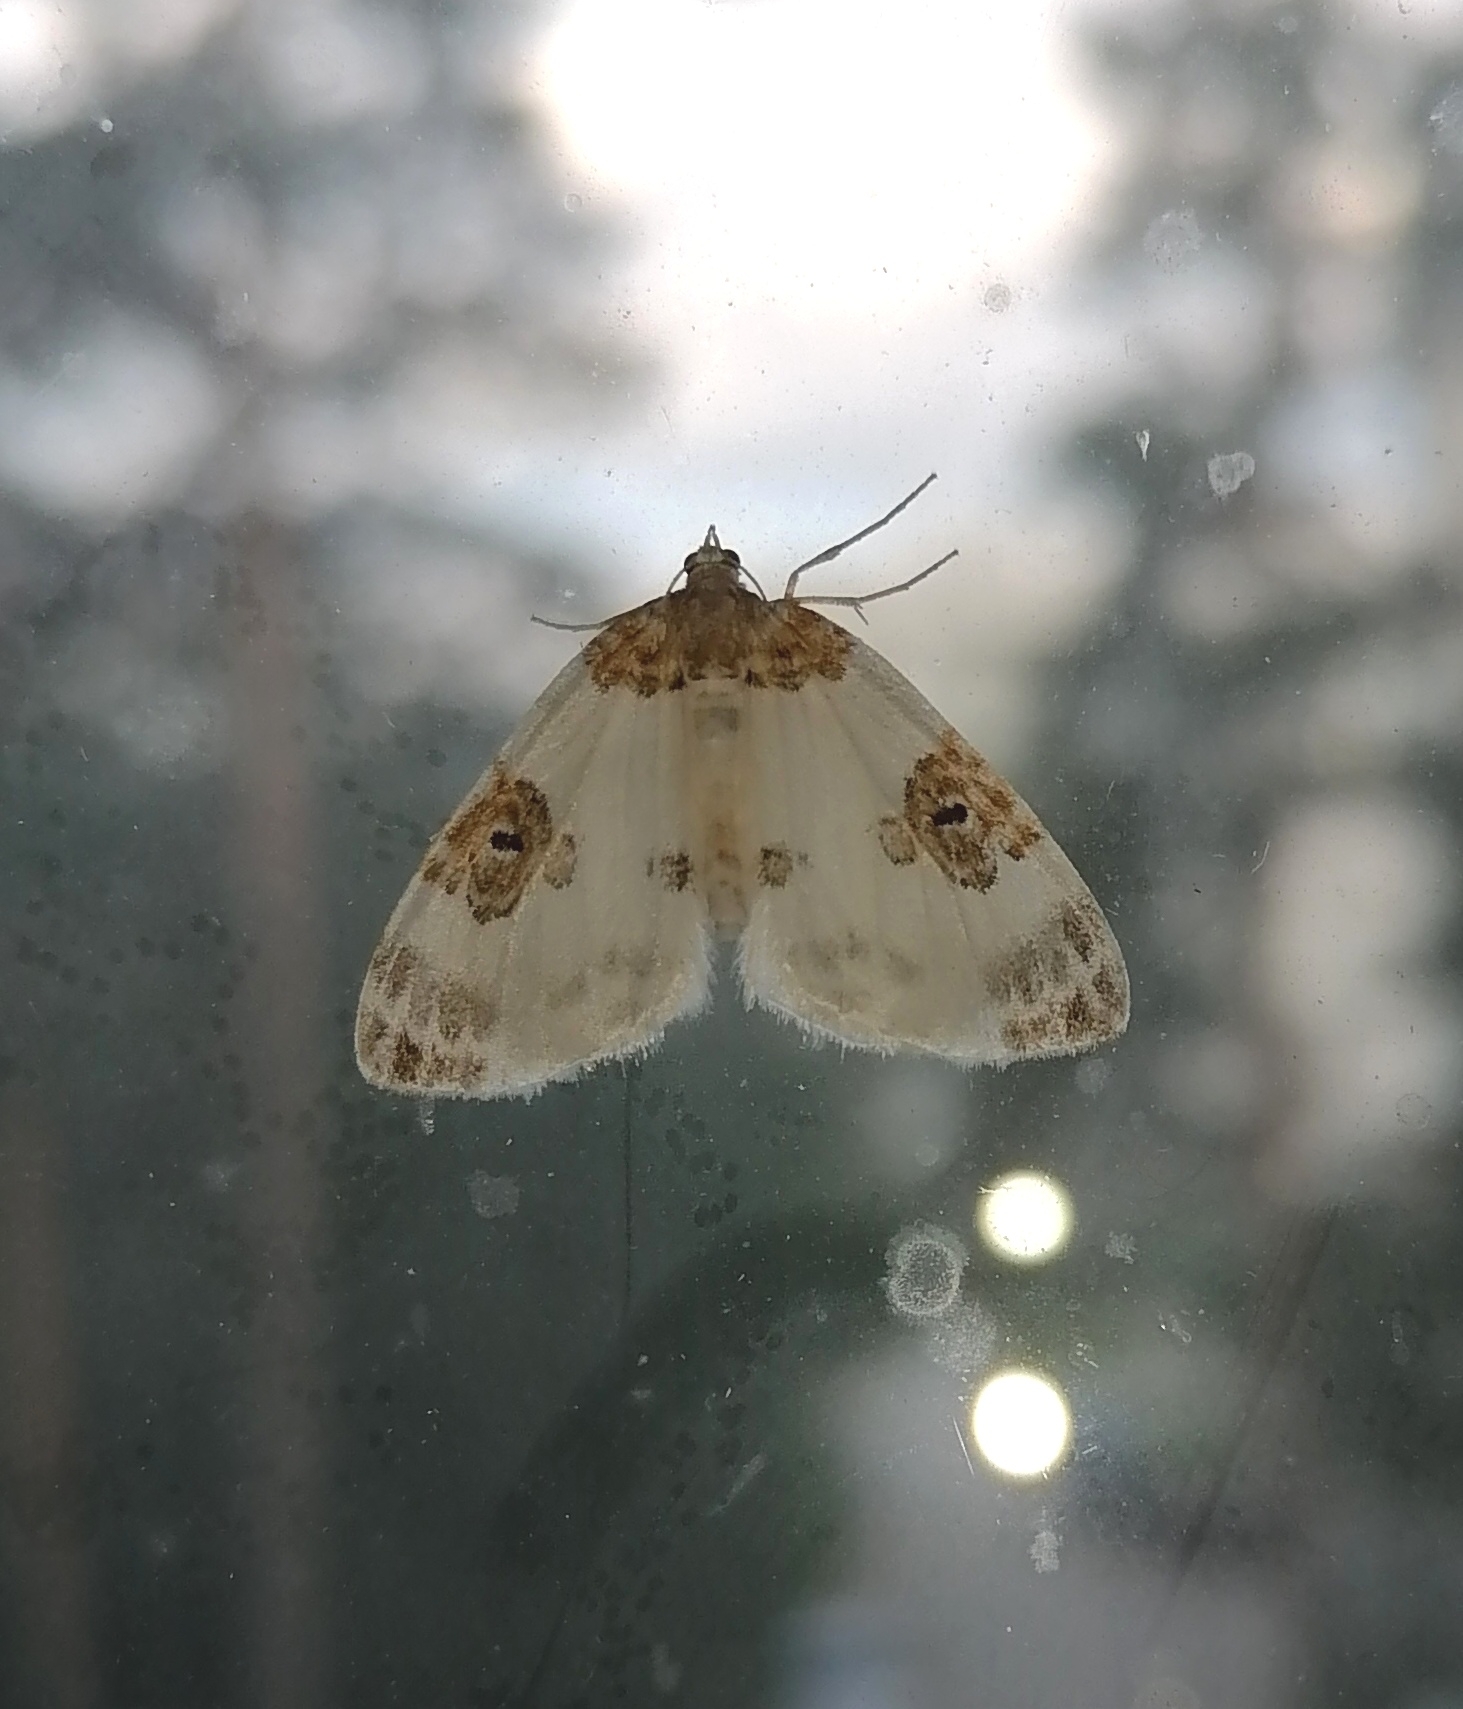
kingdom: Animalia
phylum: Arthropoda
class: Insecta
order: Lepidoptera
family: Geometridae
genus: Plemyria
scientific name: Plemyria rubiginata
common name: Blue-bordered carpet
